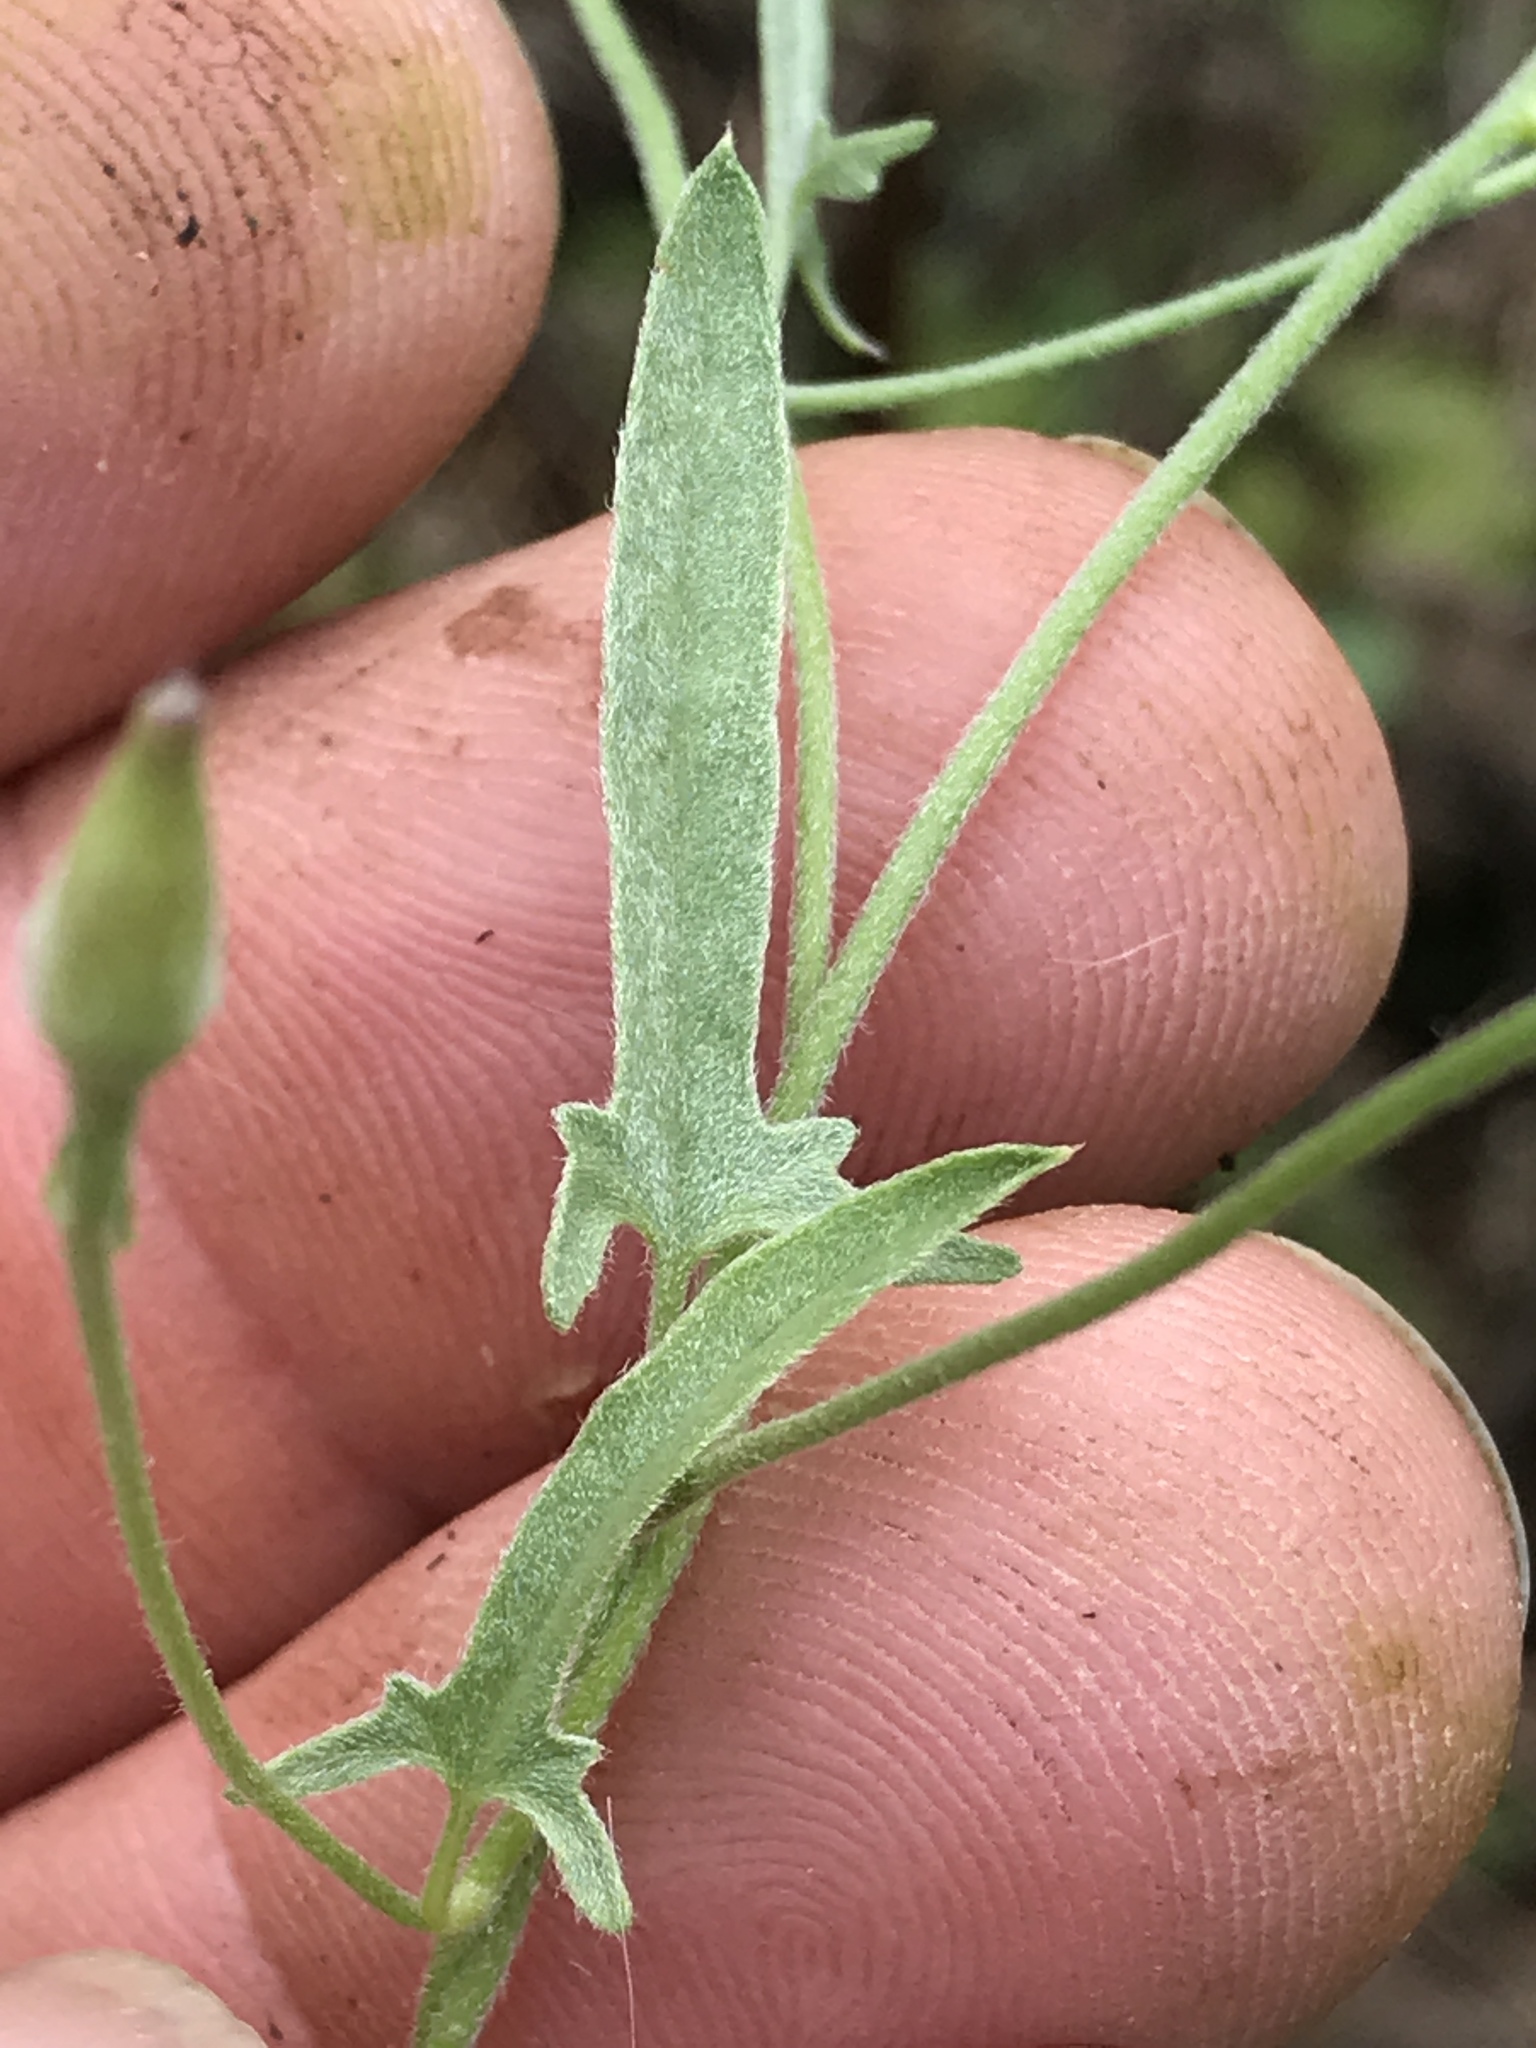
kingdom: Plantae
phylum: Tracheophyta
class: Magnoliopsida
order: Solanales
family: Convolvulaceae
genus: Convolvulus
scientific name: Convolvulus equitans
